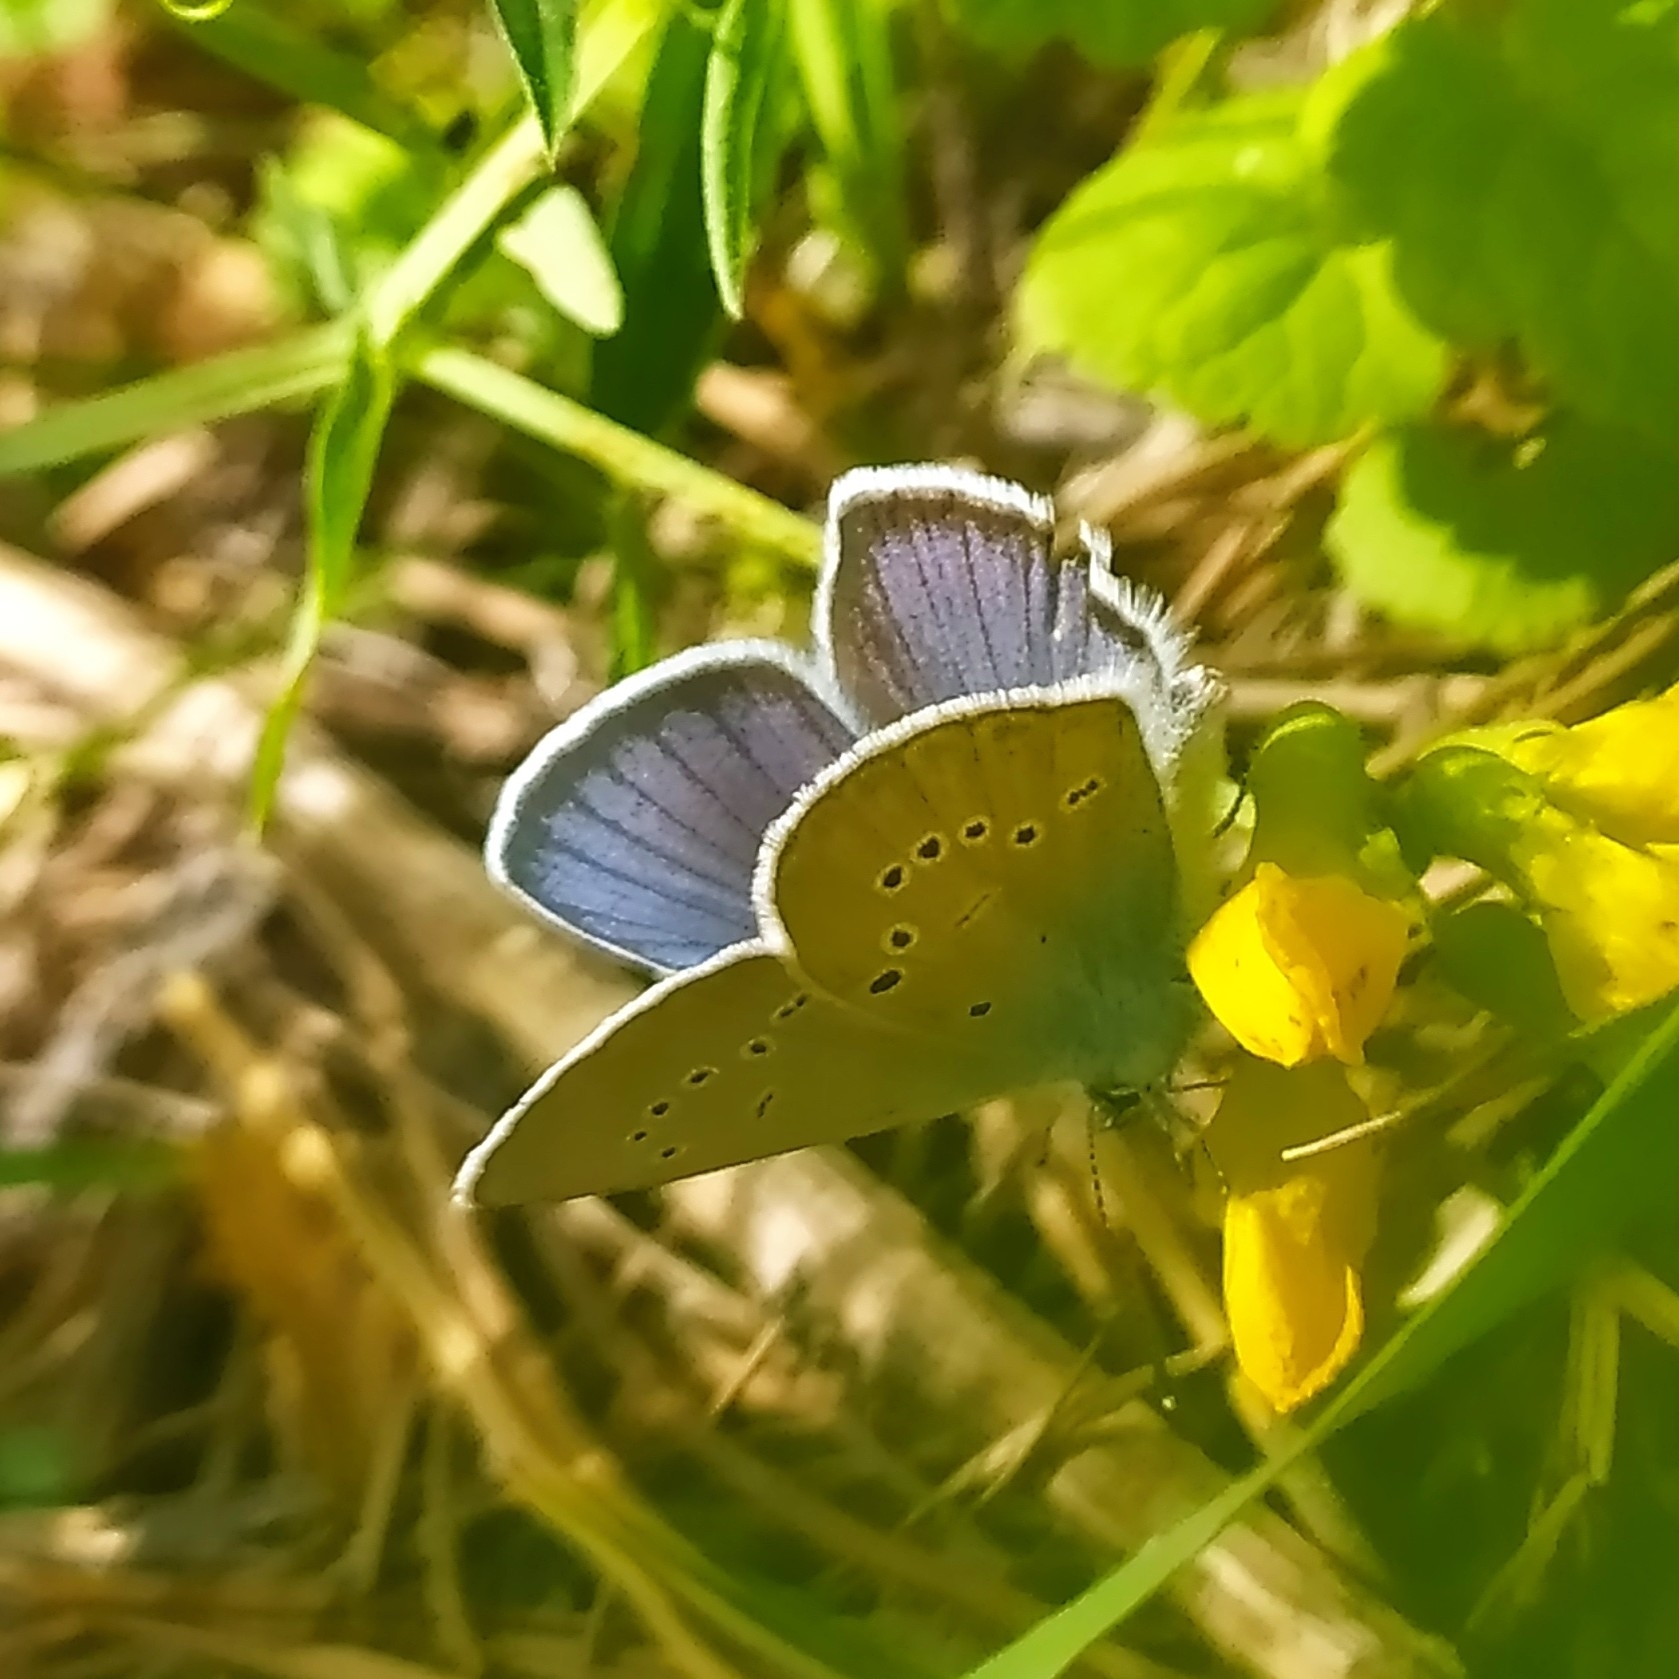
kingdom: Animalia
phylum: Arthropoda
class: Insecta
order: Lepidoptera
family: Lycaenidae
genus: Cyaniris
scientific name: Cyaniris semiargus
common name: Mazarine blue
